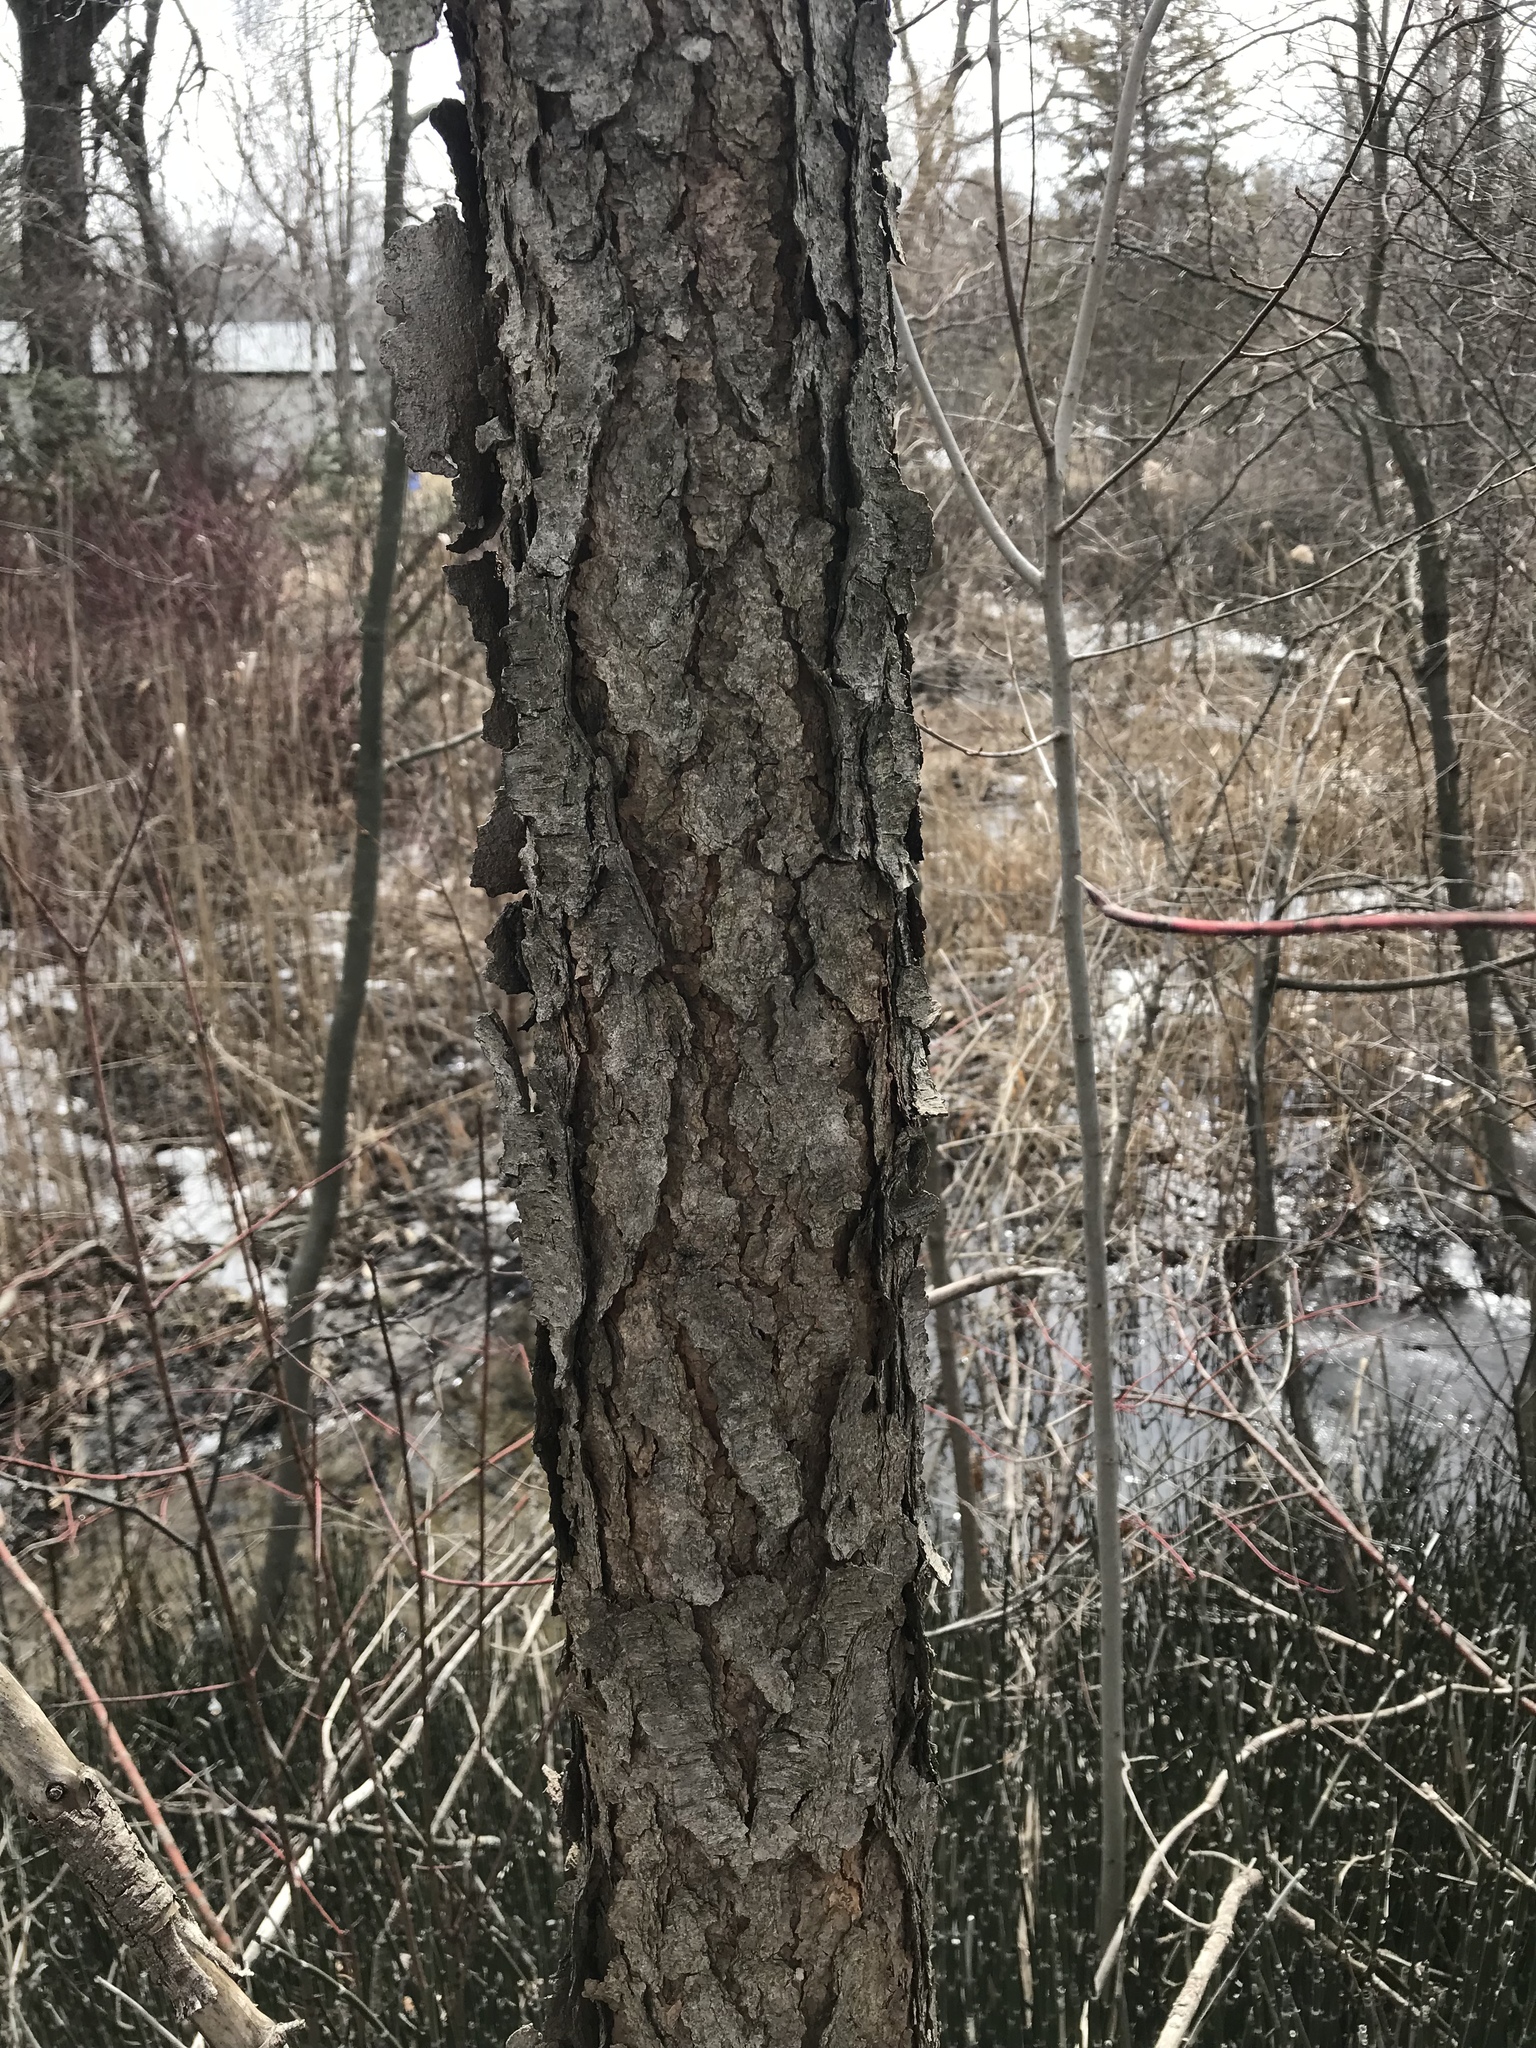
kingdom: Plantae
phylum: Tracheophyta
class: Magnoliopsida
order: Rosales
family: Rosaceae
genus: Prunus
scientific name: Prunus serotina
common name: Black cherry
